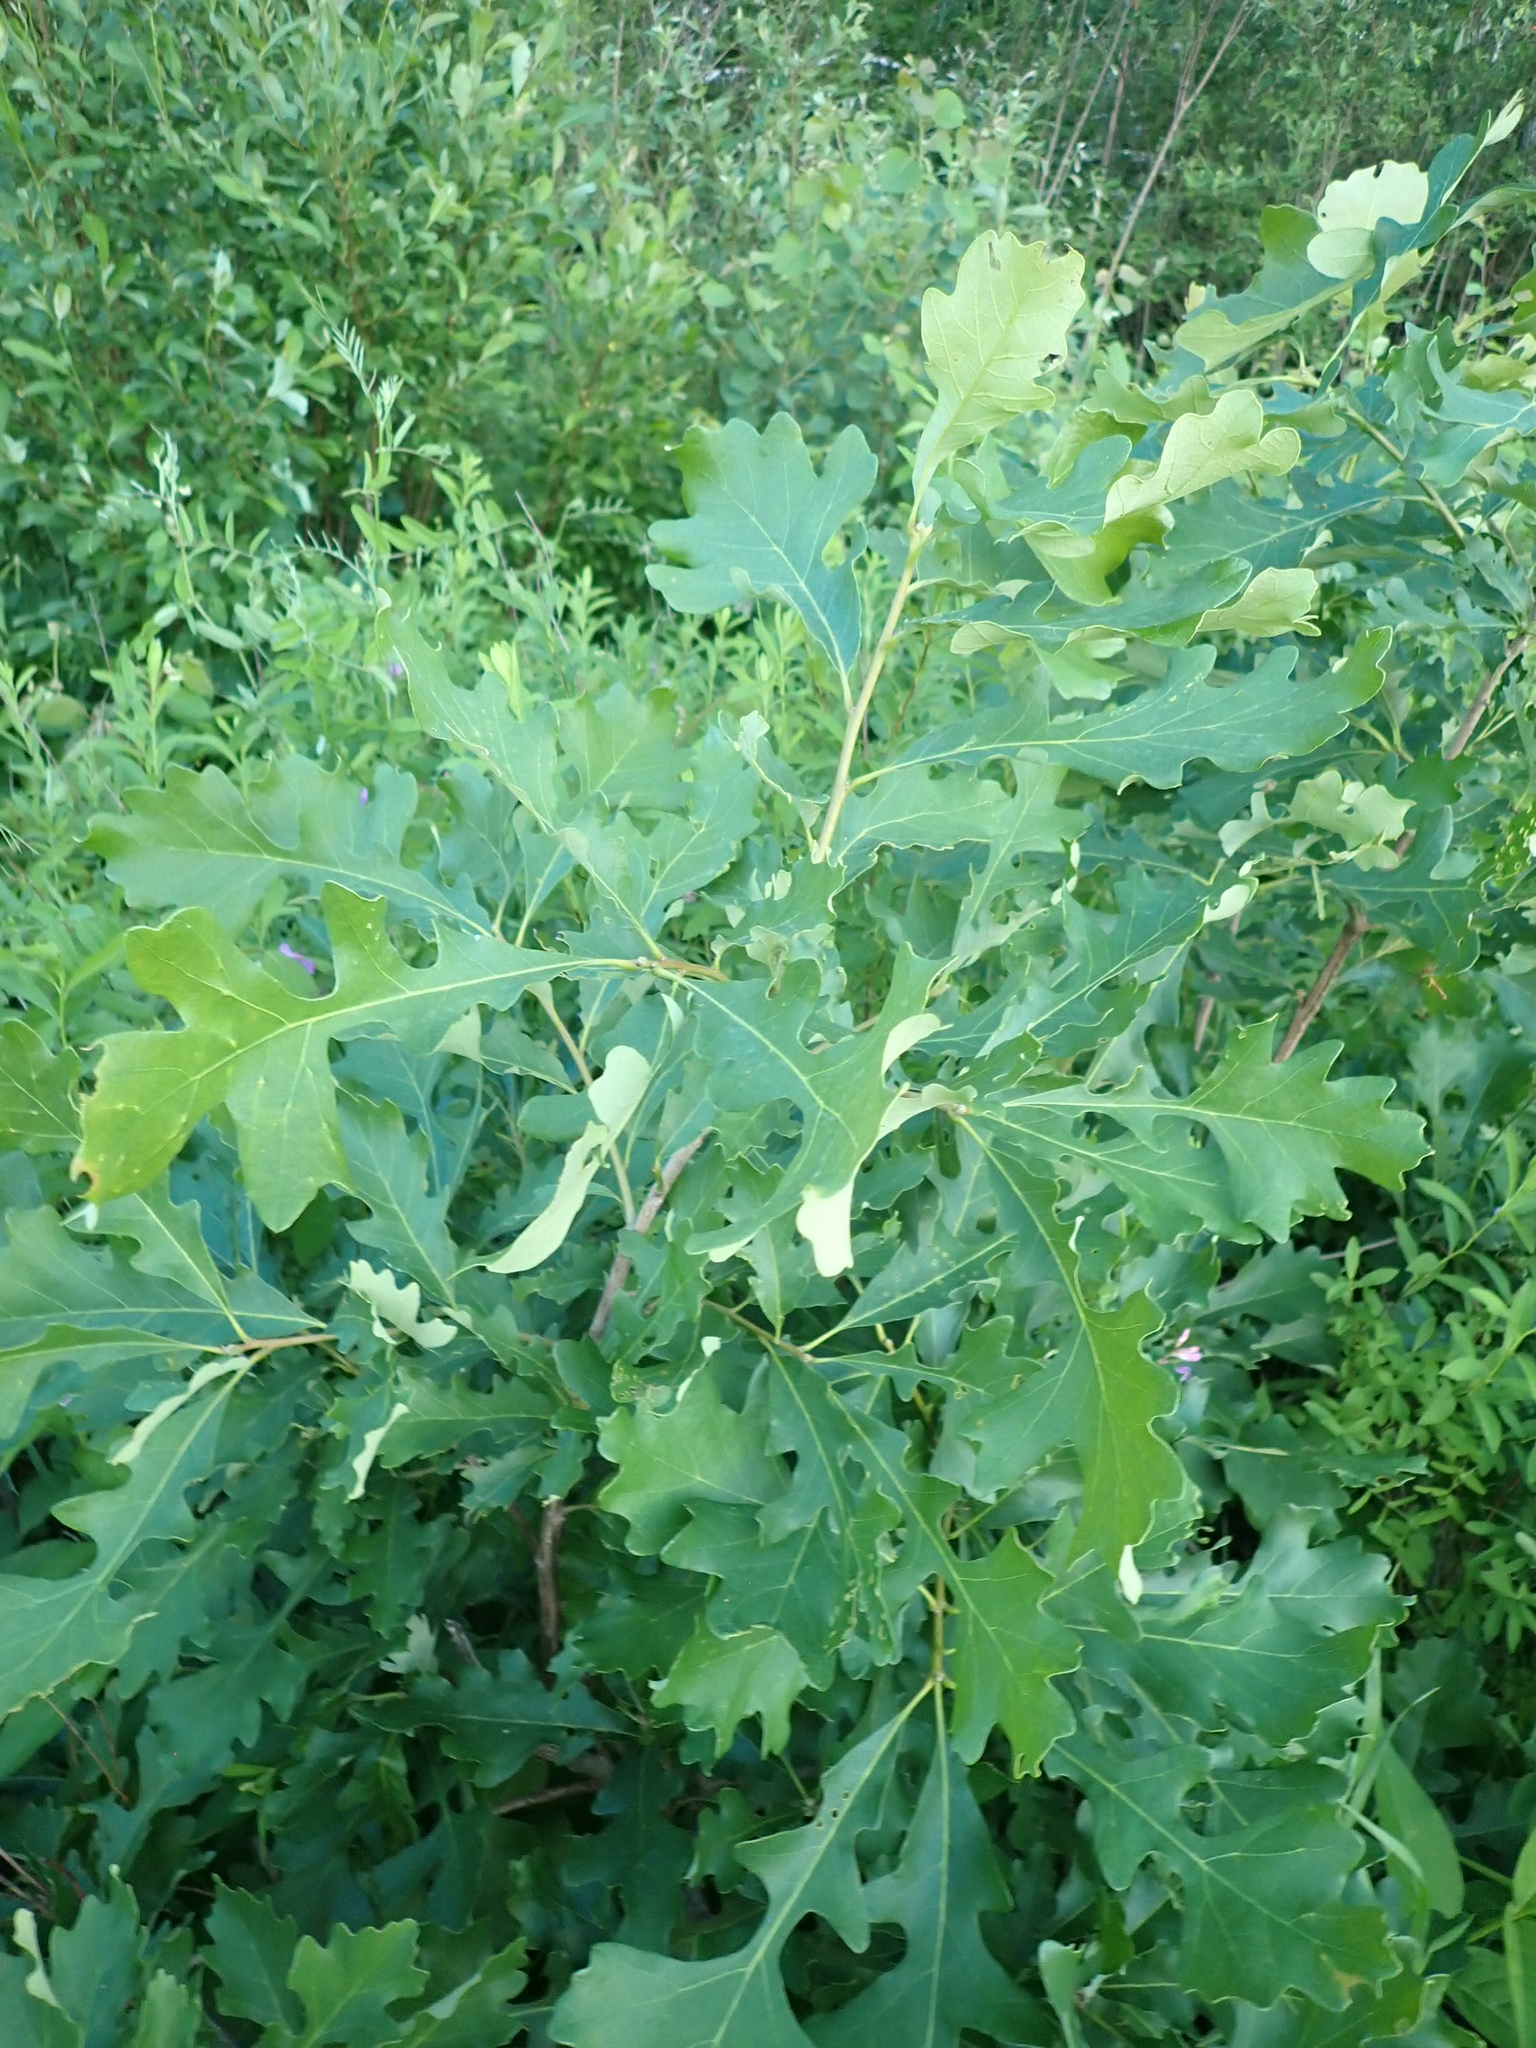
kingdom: Plantae
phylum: Tracheophyta
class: Magnoliopsida
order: Fagales
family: Fagaceae
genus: Quercus
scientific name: Quercus macrocarpa
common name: Bur oak
